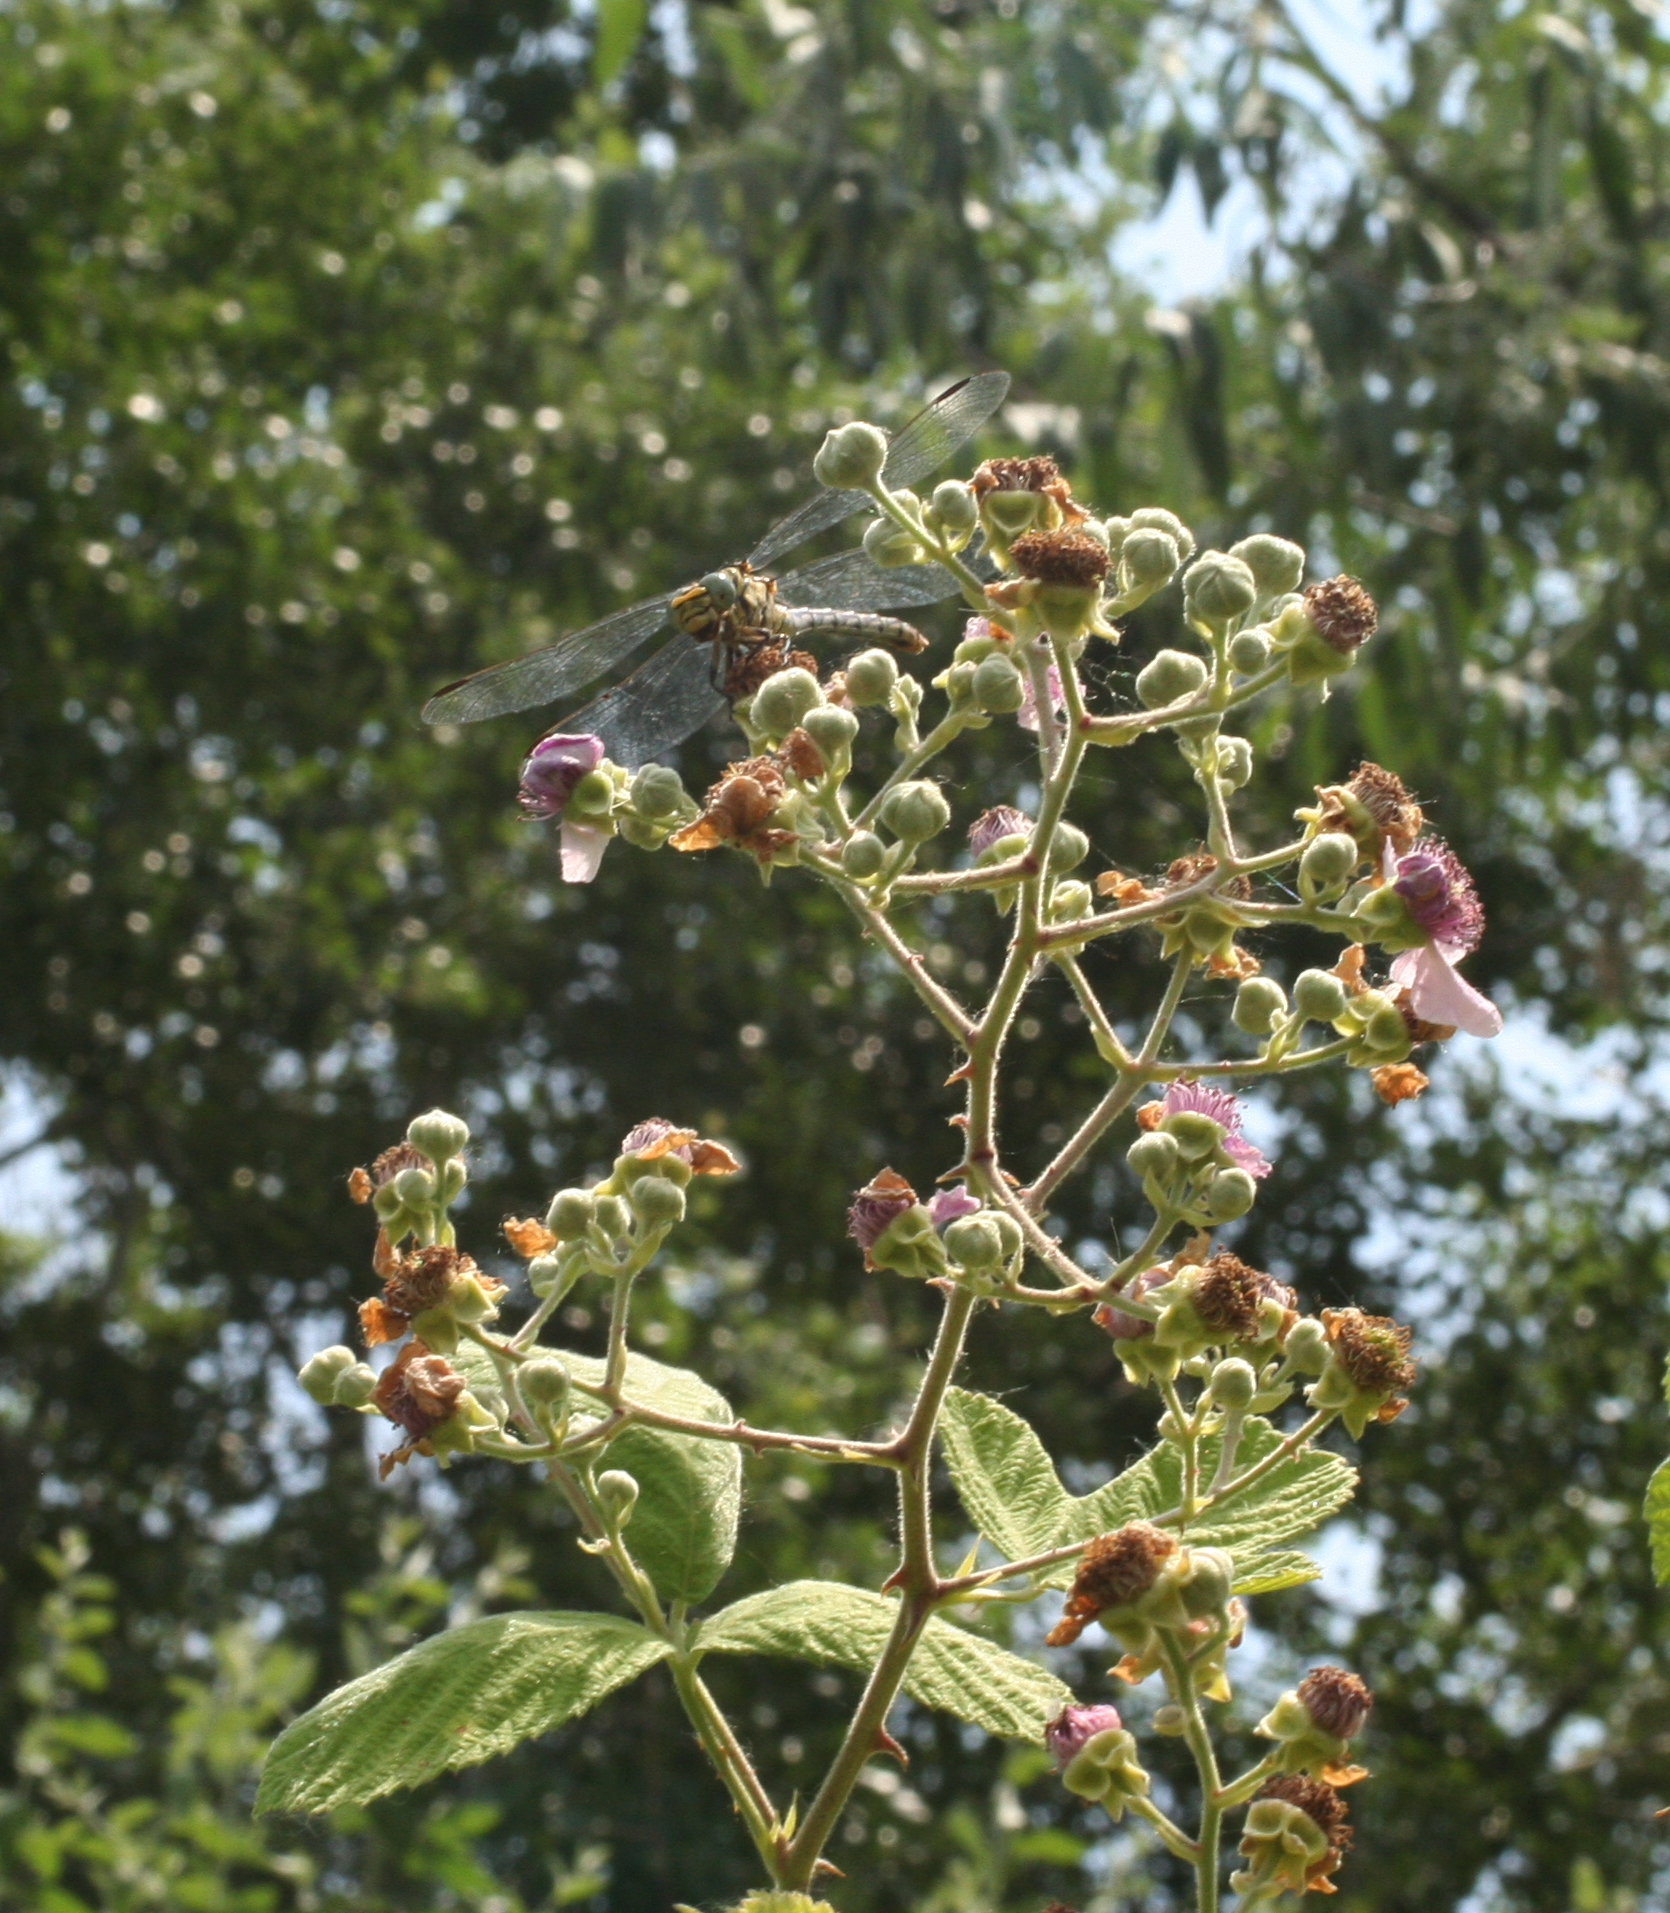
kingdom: Animalia
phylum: Arthropoda
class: Insecta
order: Odonata
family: Gomphidae
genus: Onychogomphus
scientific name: Onychogomphus forcipatus
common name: Small pincertail
